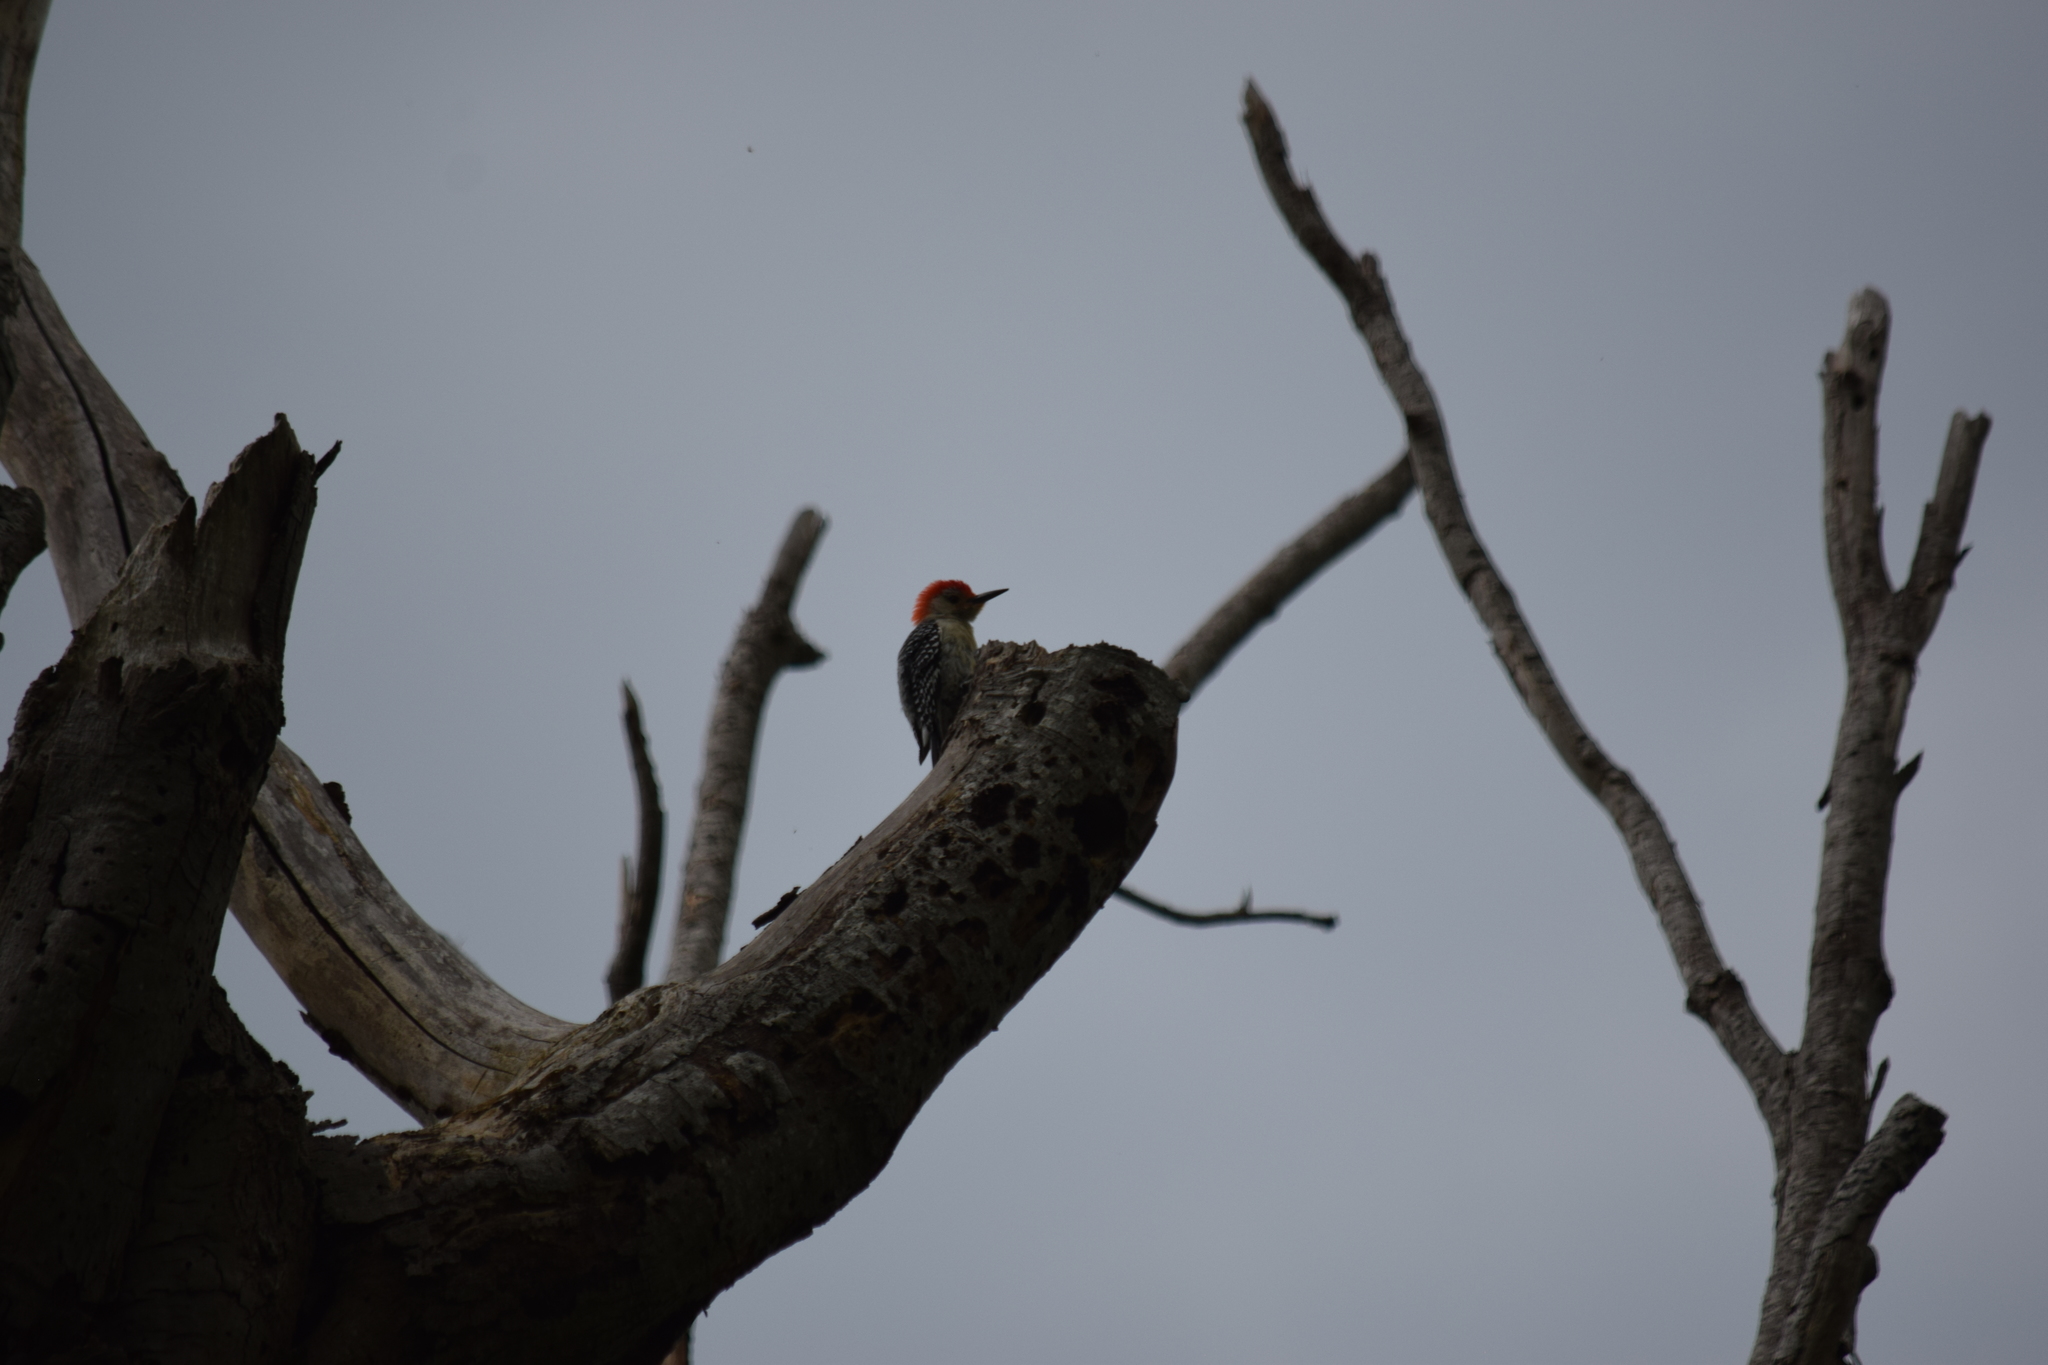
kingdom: Animalia
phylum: Chordata
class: Aves
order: Piciformes
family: Picidae
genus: Melanerpes
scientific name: Melanerpes carolinus
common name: Red-bellied woodpecker
